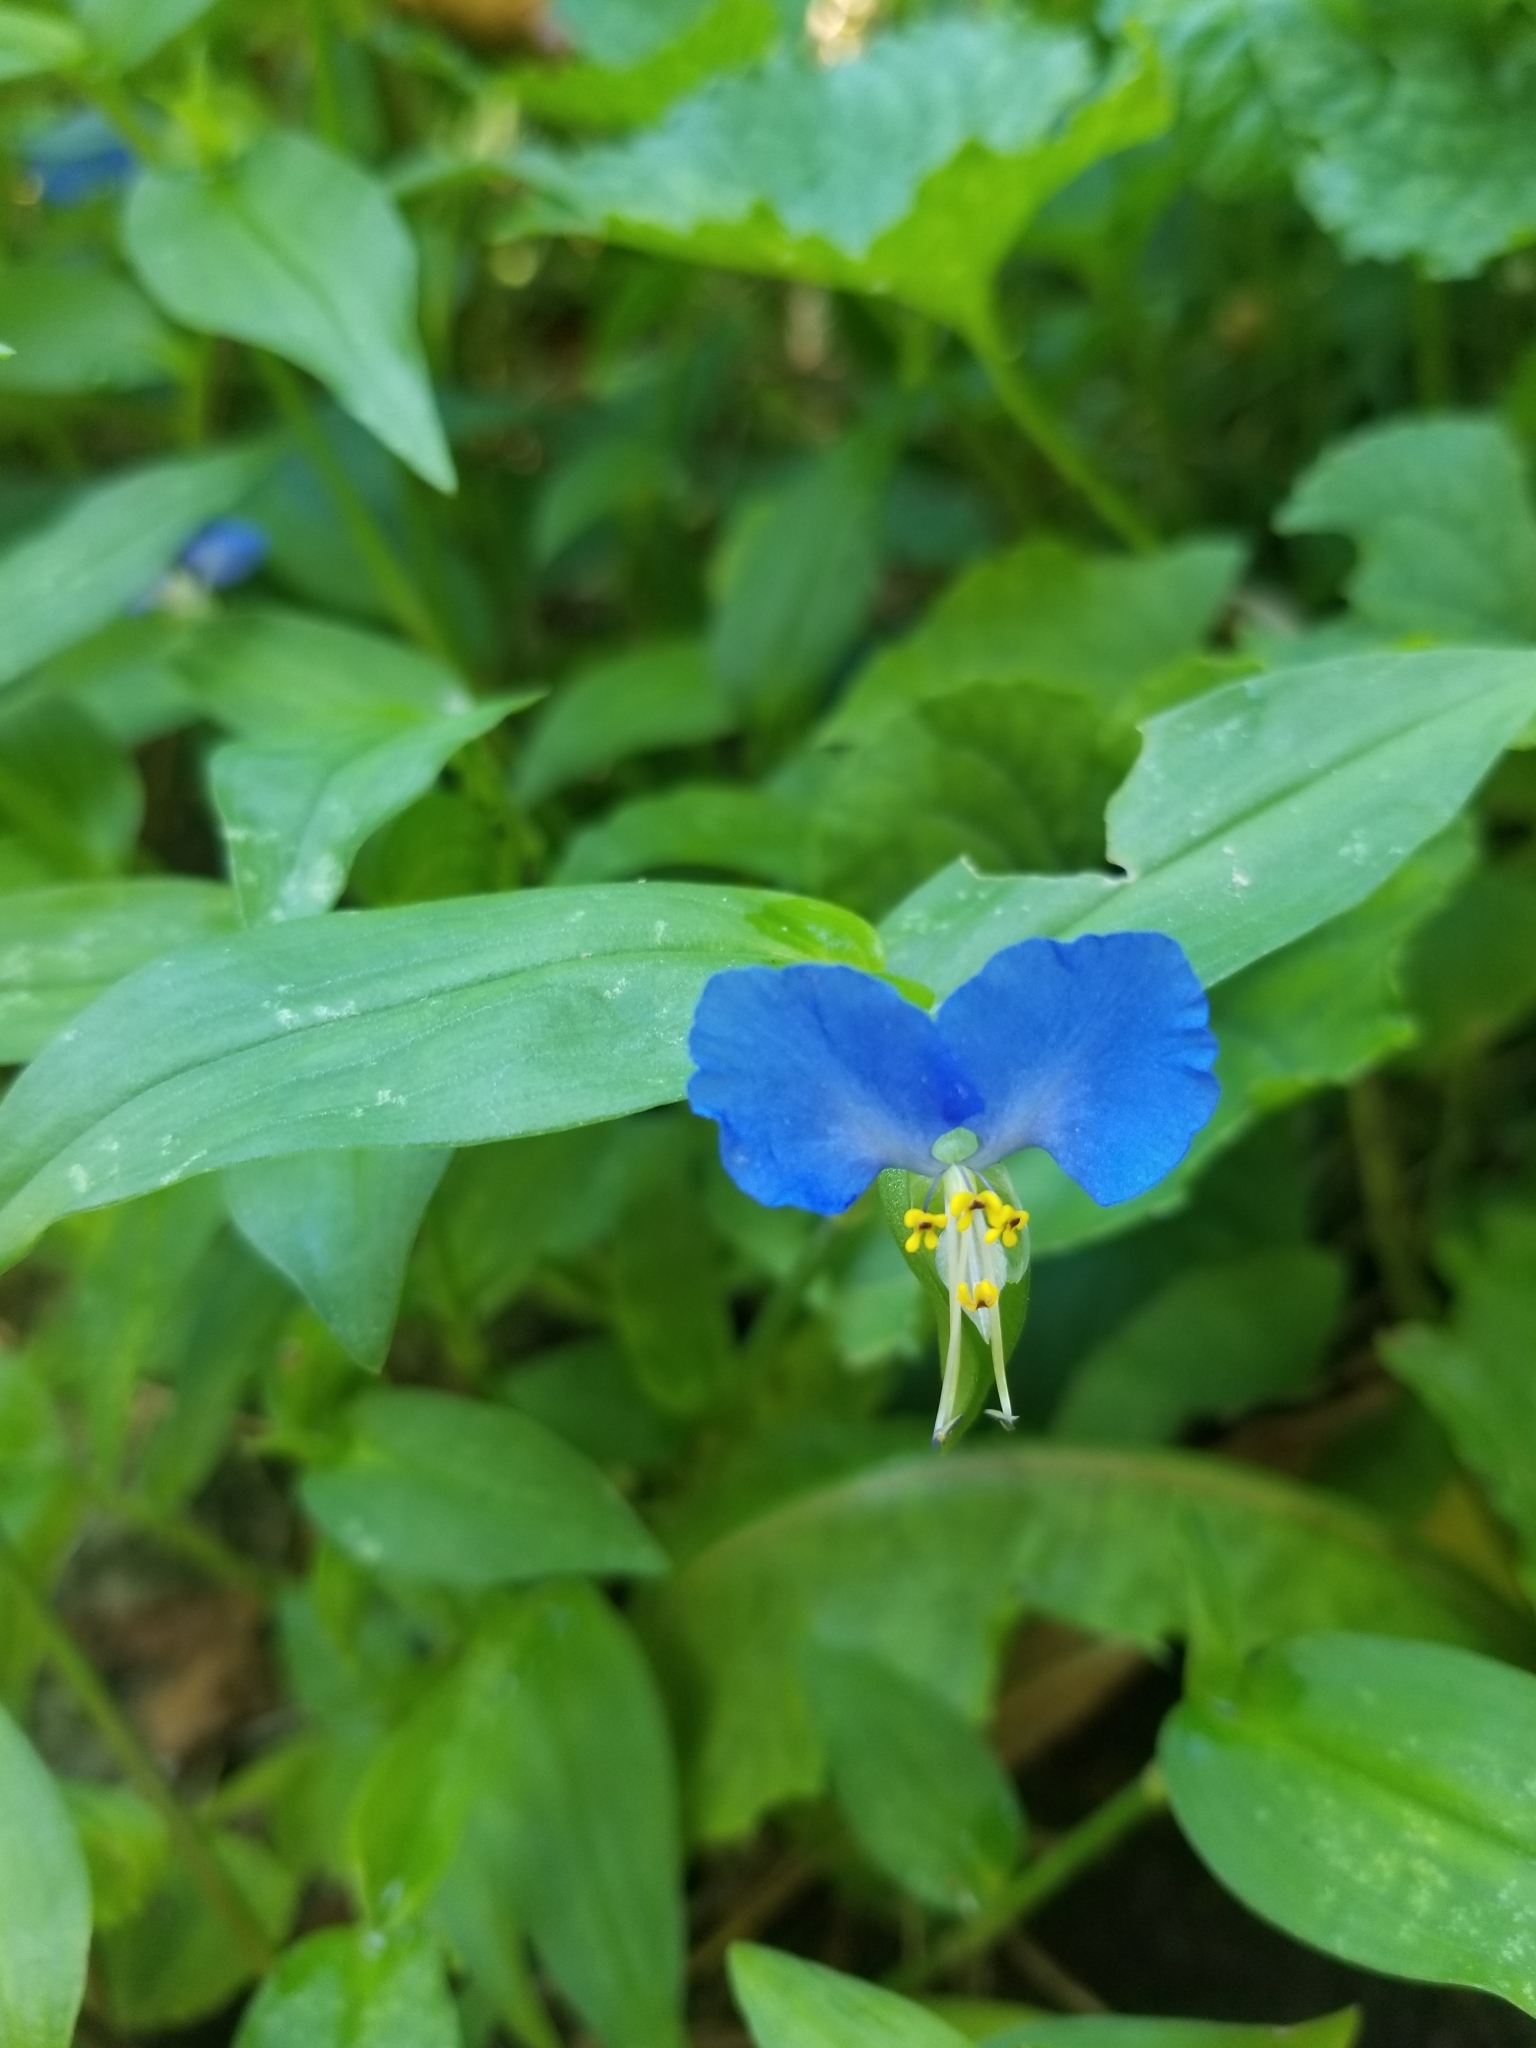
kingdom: Plantae
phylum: Tracheophyta
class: Liliopsida
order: Commelinales
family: Commelinaceae
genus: Commelina
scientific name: Commelina communis
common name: Asiatic dayflower
